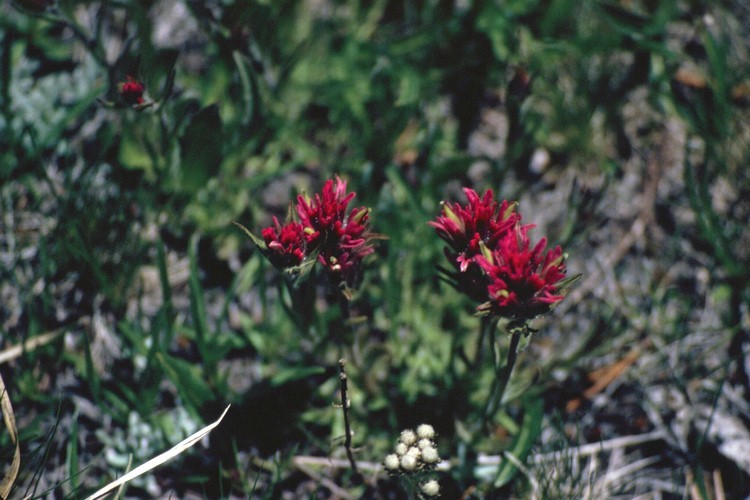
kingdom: Plantae
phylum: Tracheophyta
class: Magnoliopsida
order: Lamiales
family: Orobanchaceae
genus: Castilleja
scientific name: Castilleja lemmonii
